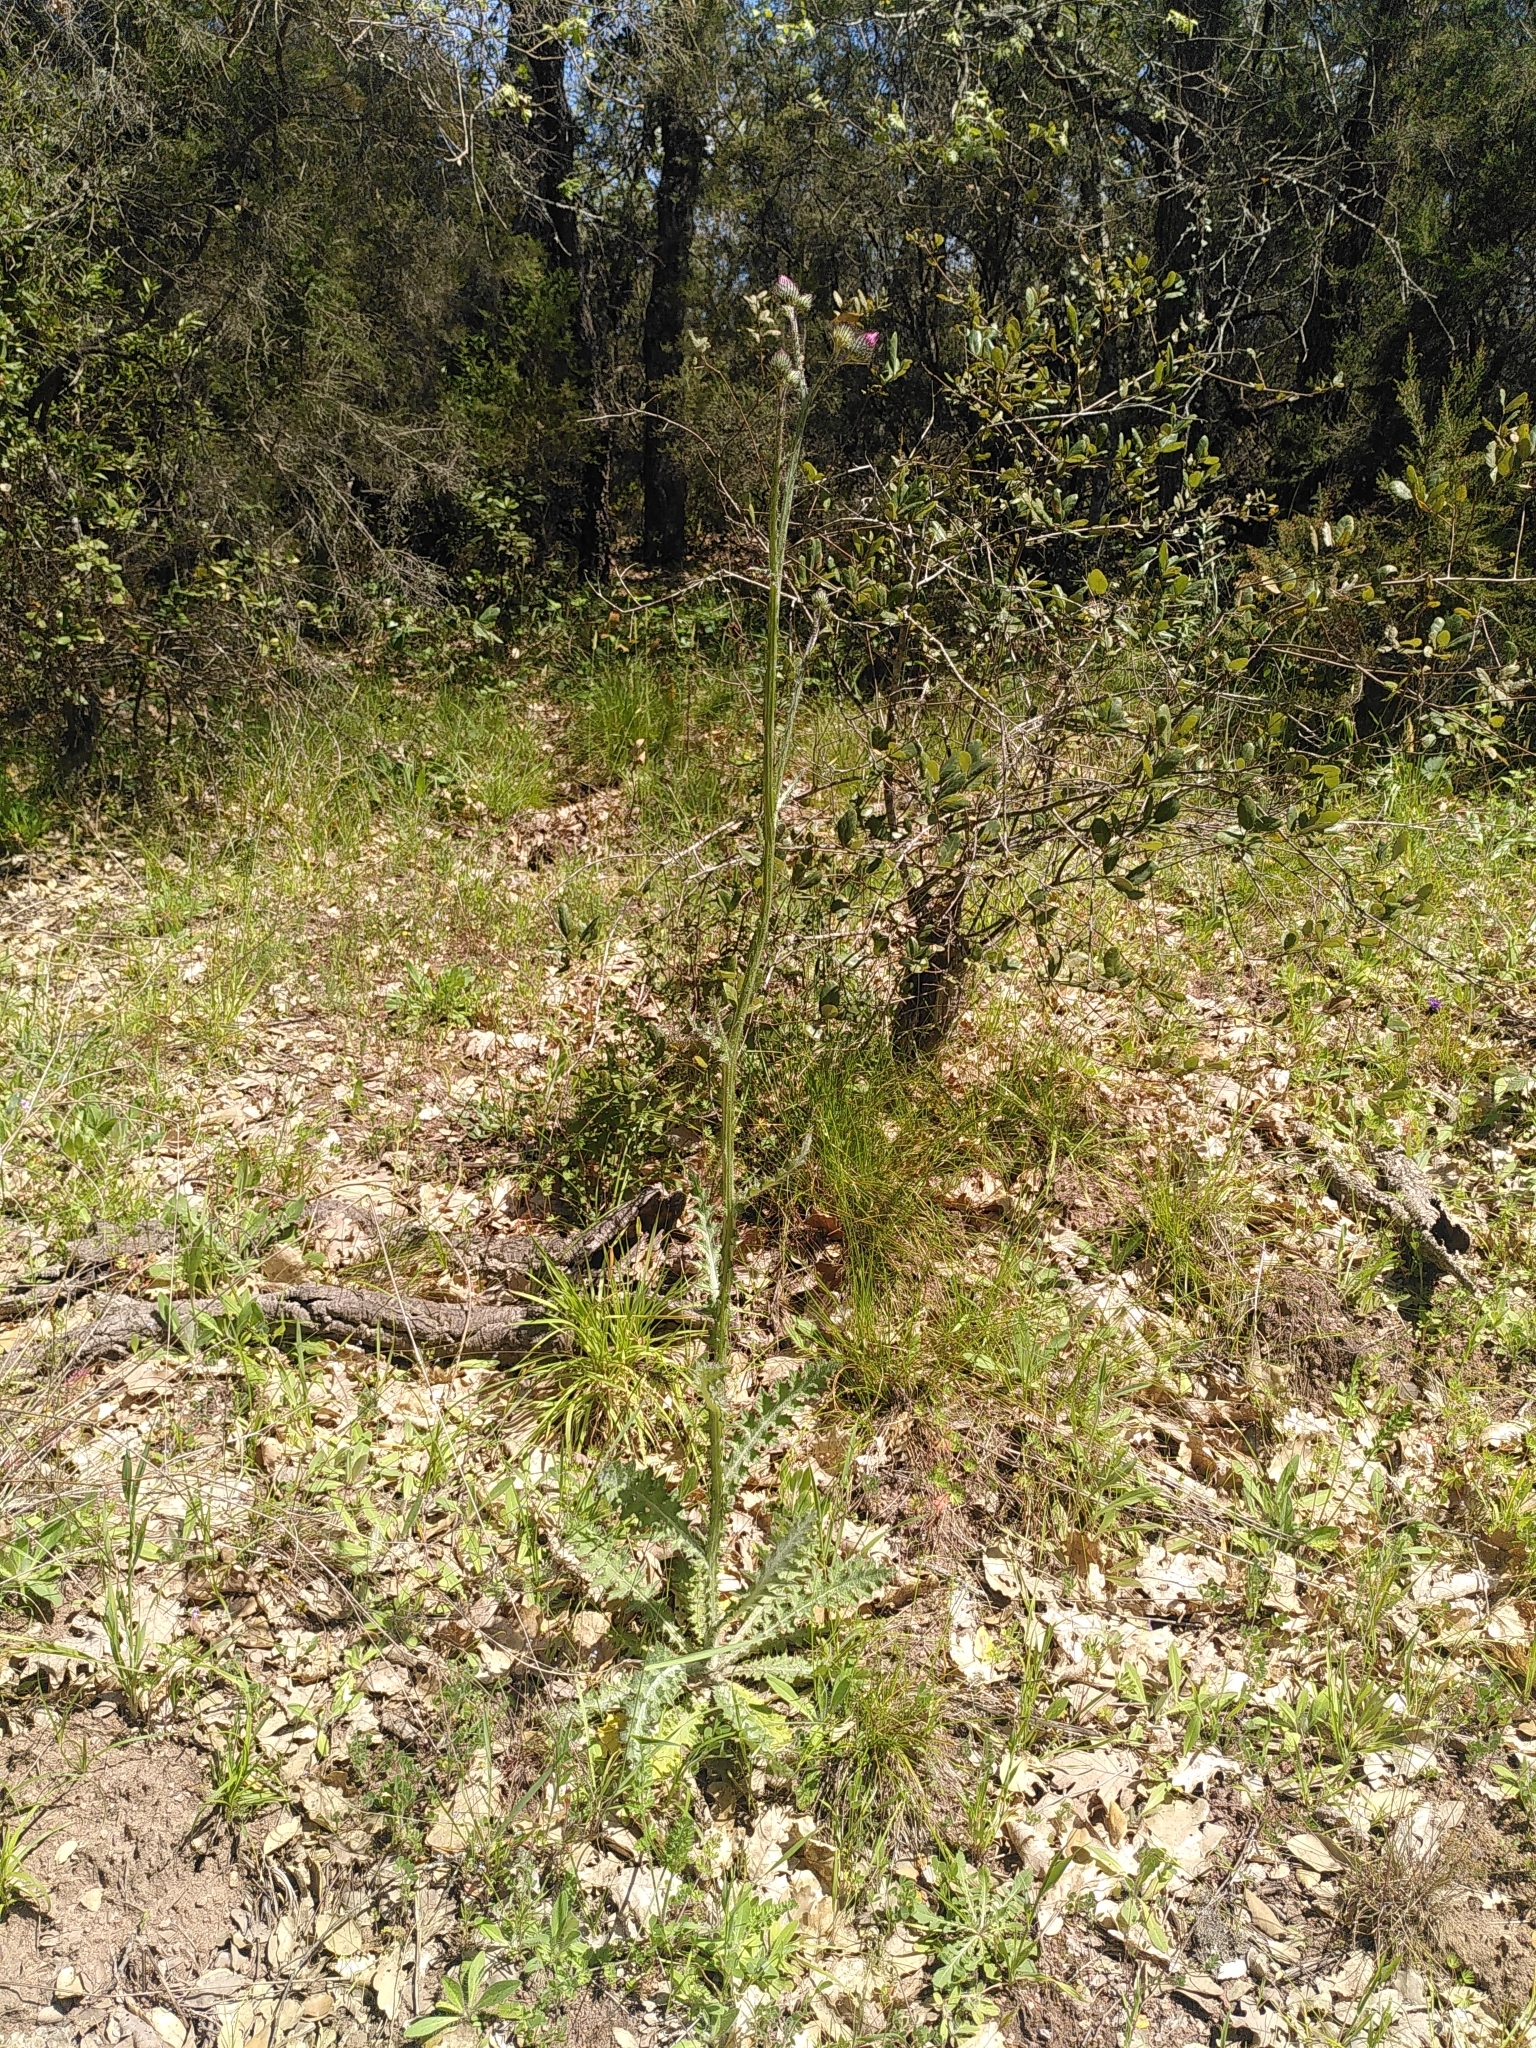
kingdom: Plantae
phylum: Tracheophyta
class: Magnoliopsida
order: Asterales
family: Asteraceae
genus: Carduus
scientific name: Carduus litigiosus
